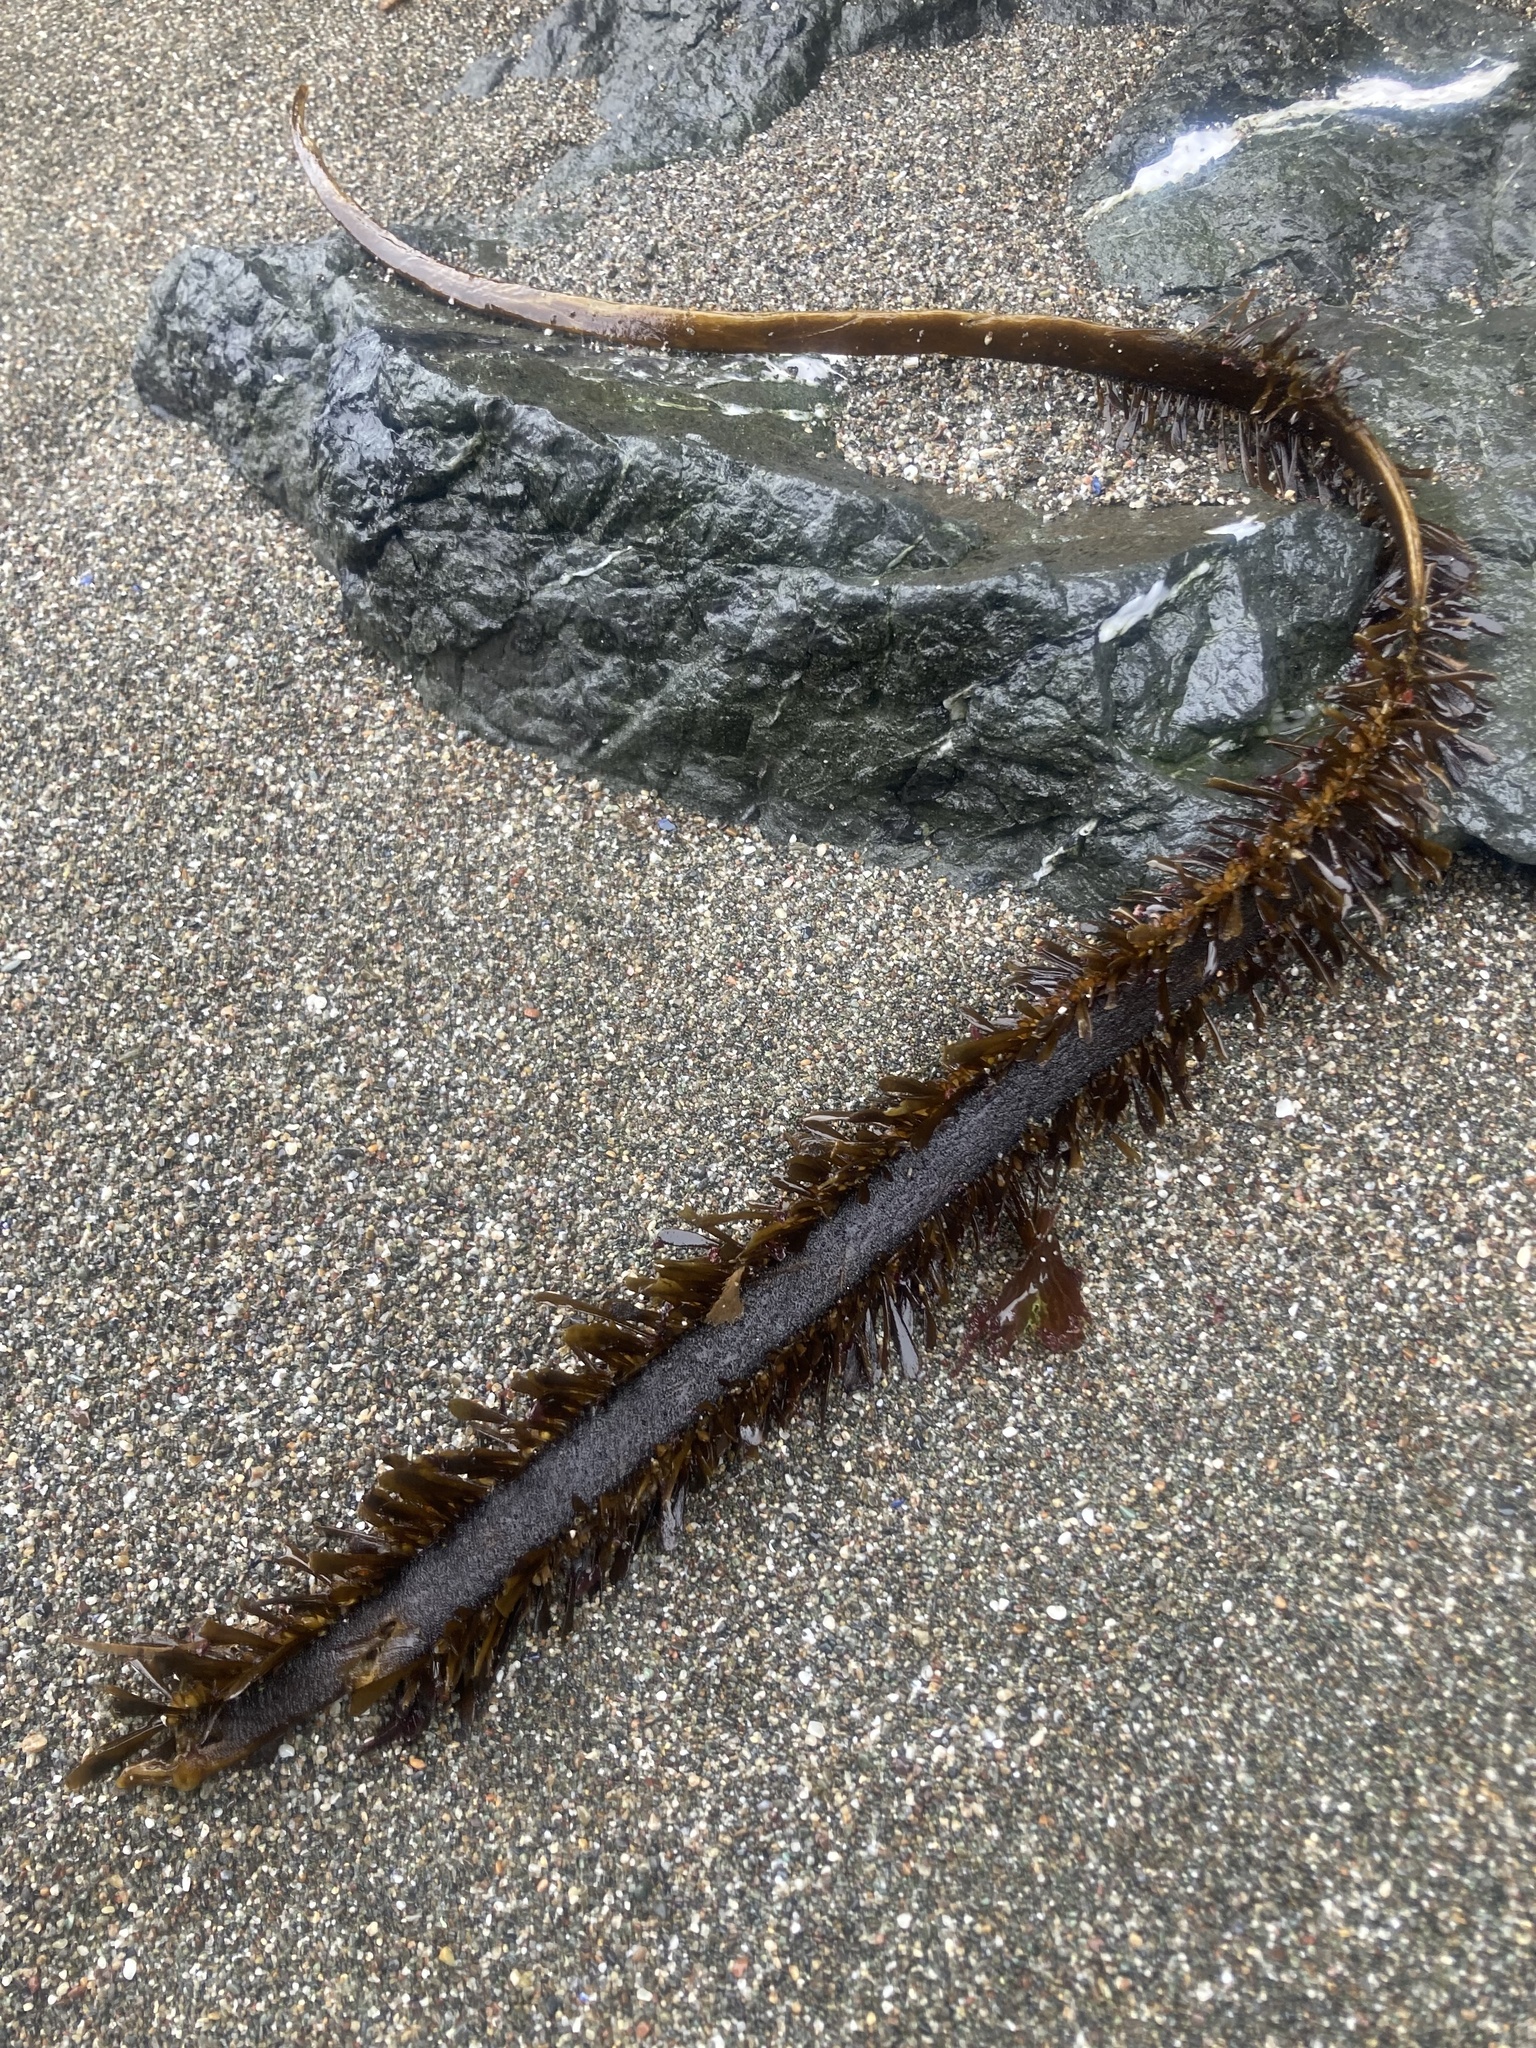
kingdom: Chromista
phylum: Ochrophyta
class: Phaeophyceae
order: Laminariales
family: Lessoniaceae
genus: Egregia
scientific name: Egregia menziesii
